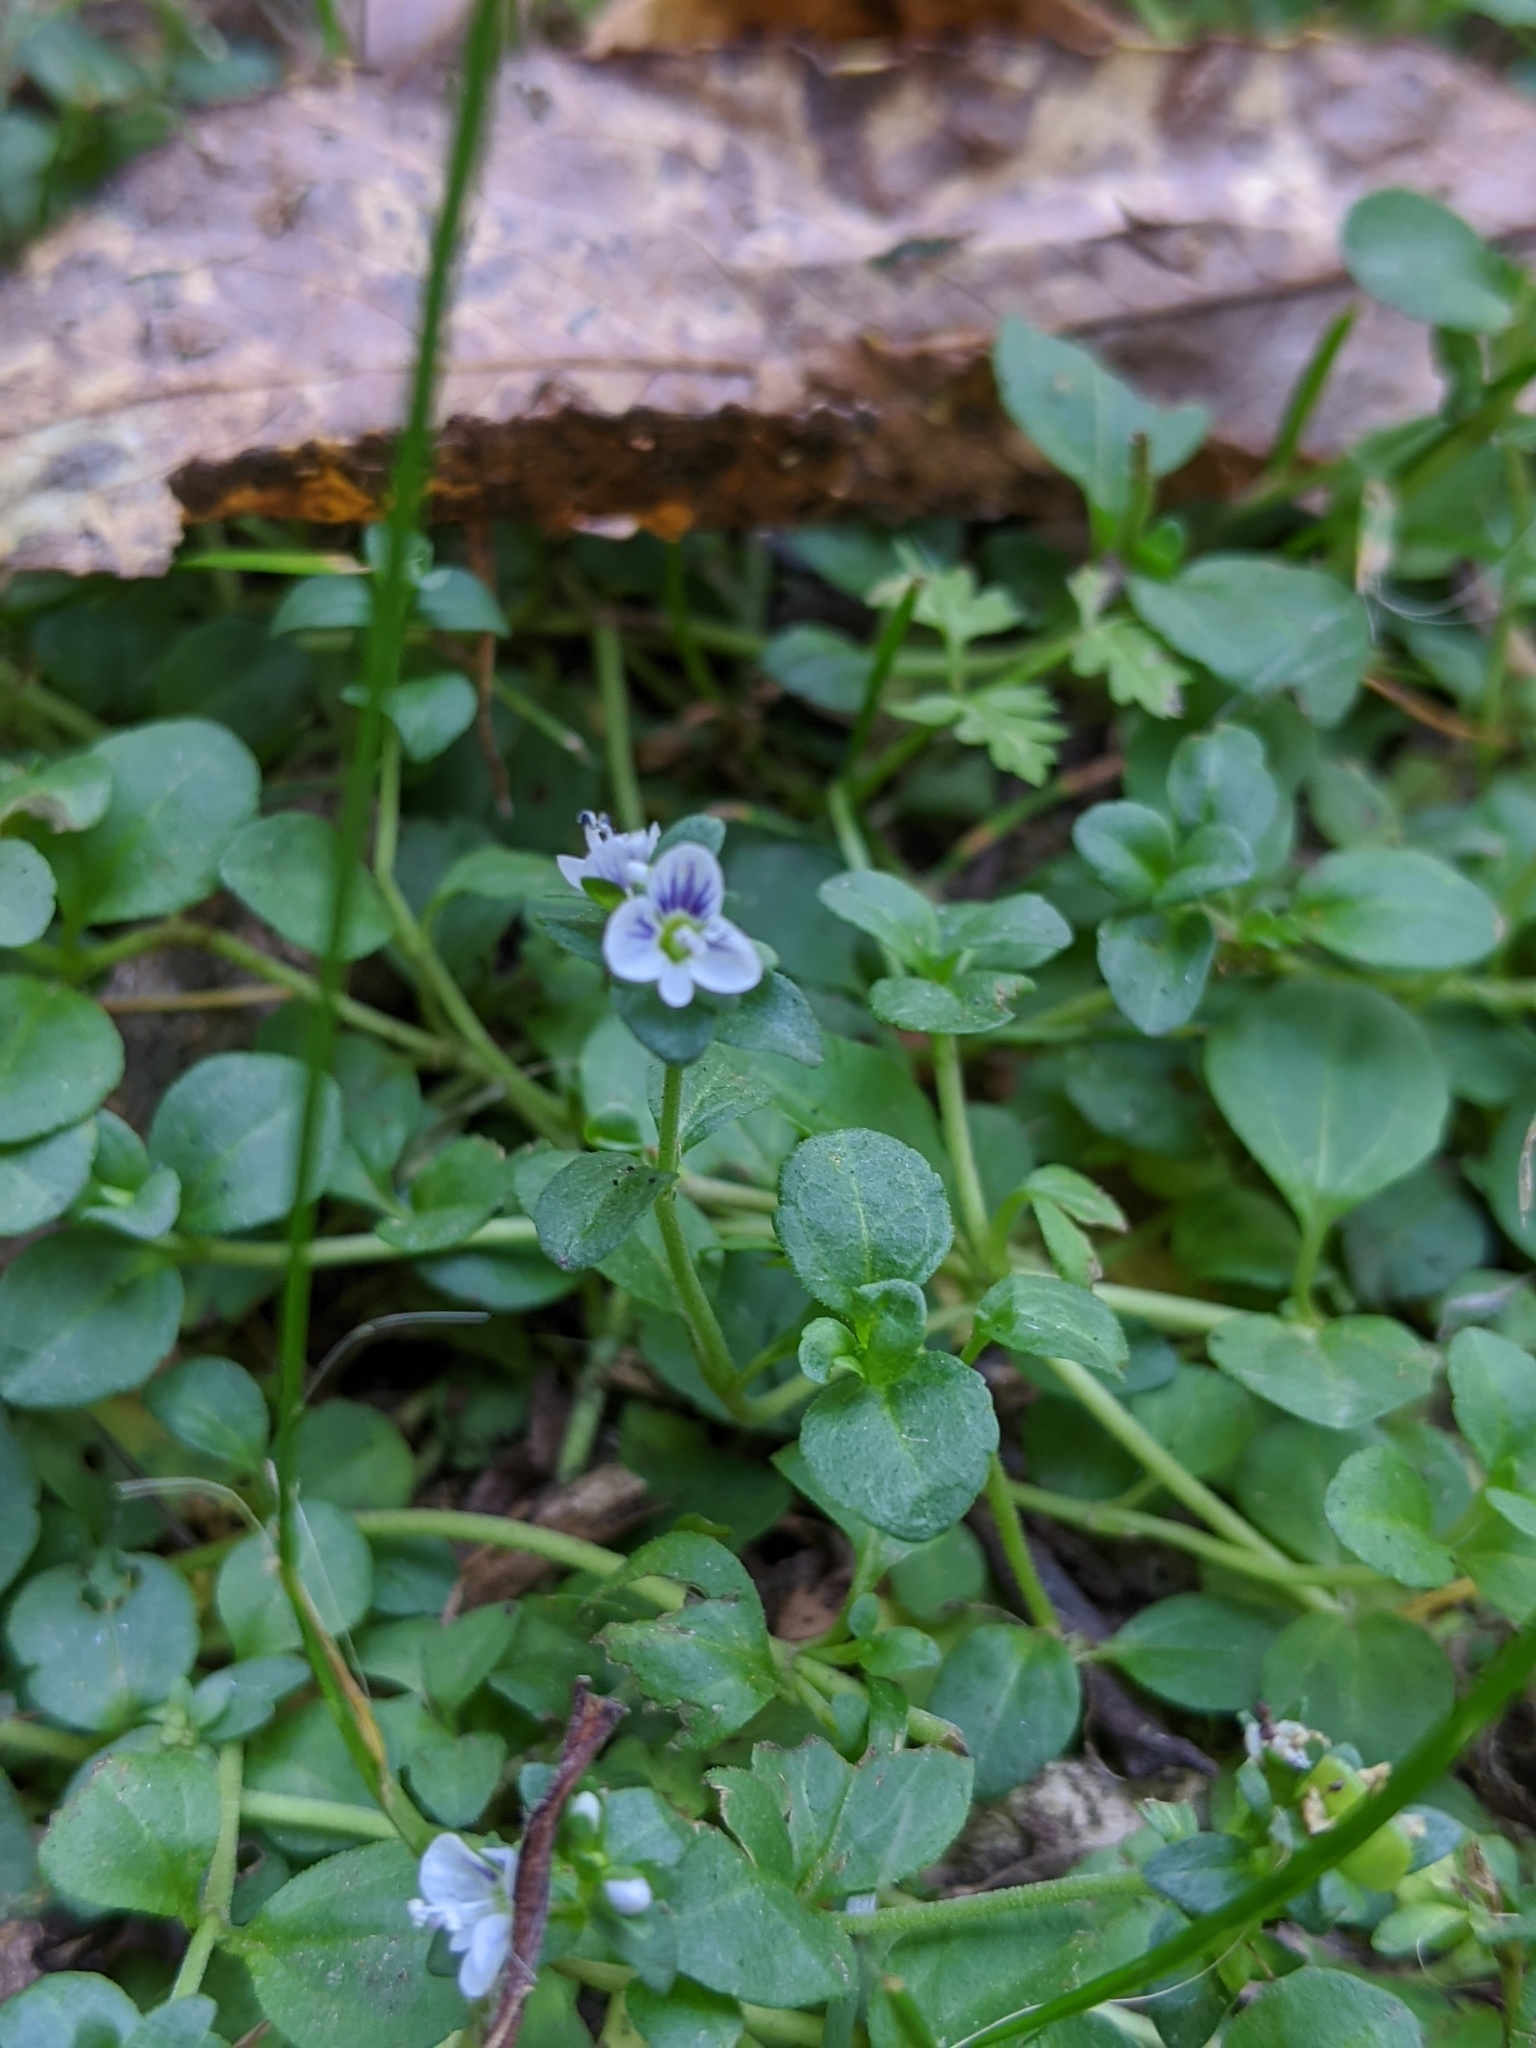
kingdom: Plantae
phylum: Tracheophyta
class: Magnoliopsida
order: Lamiales
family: Plantaginaceae
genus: Veronica
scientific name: Veronica serpyllifolia
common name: Thyme-leaved speedwell
